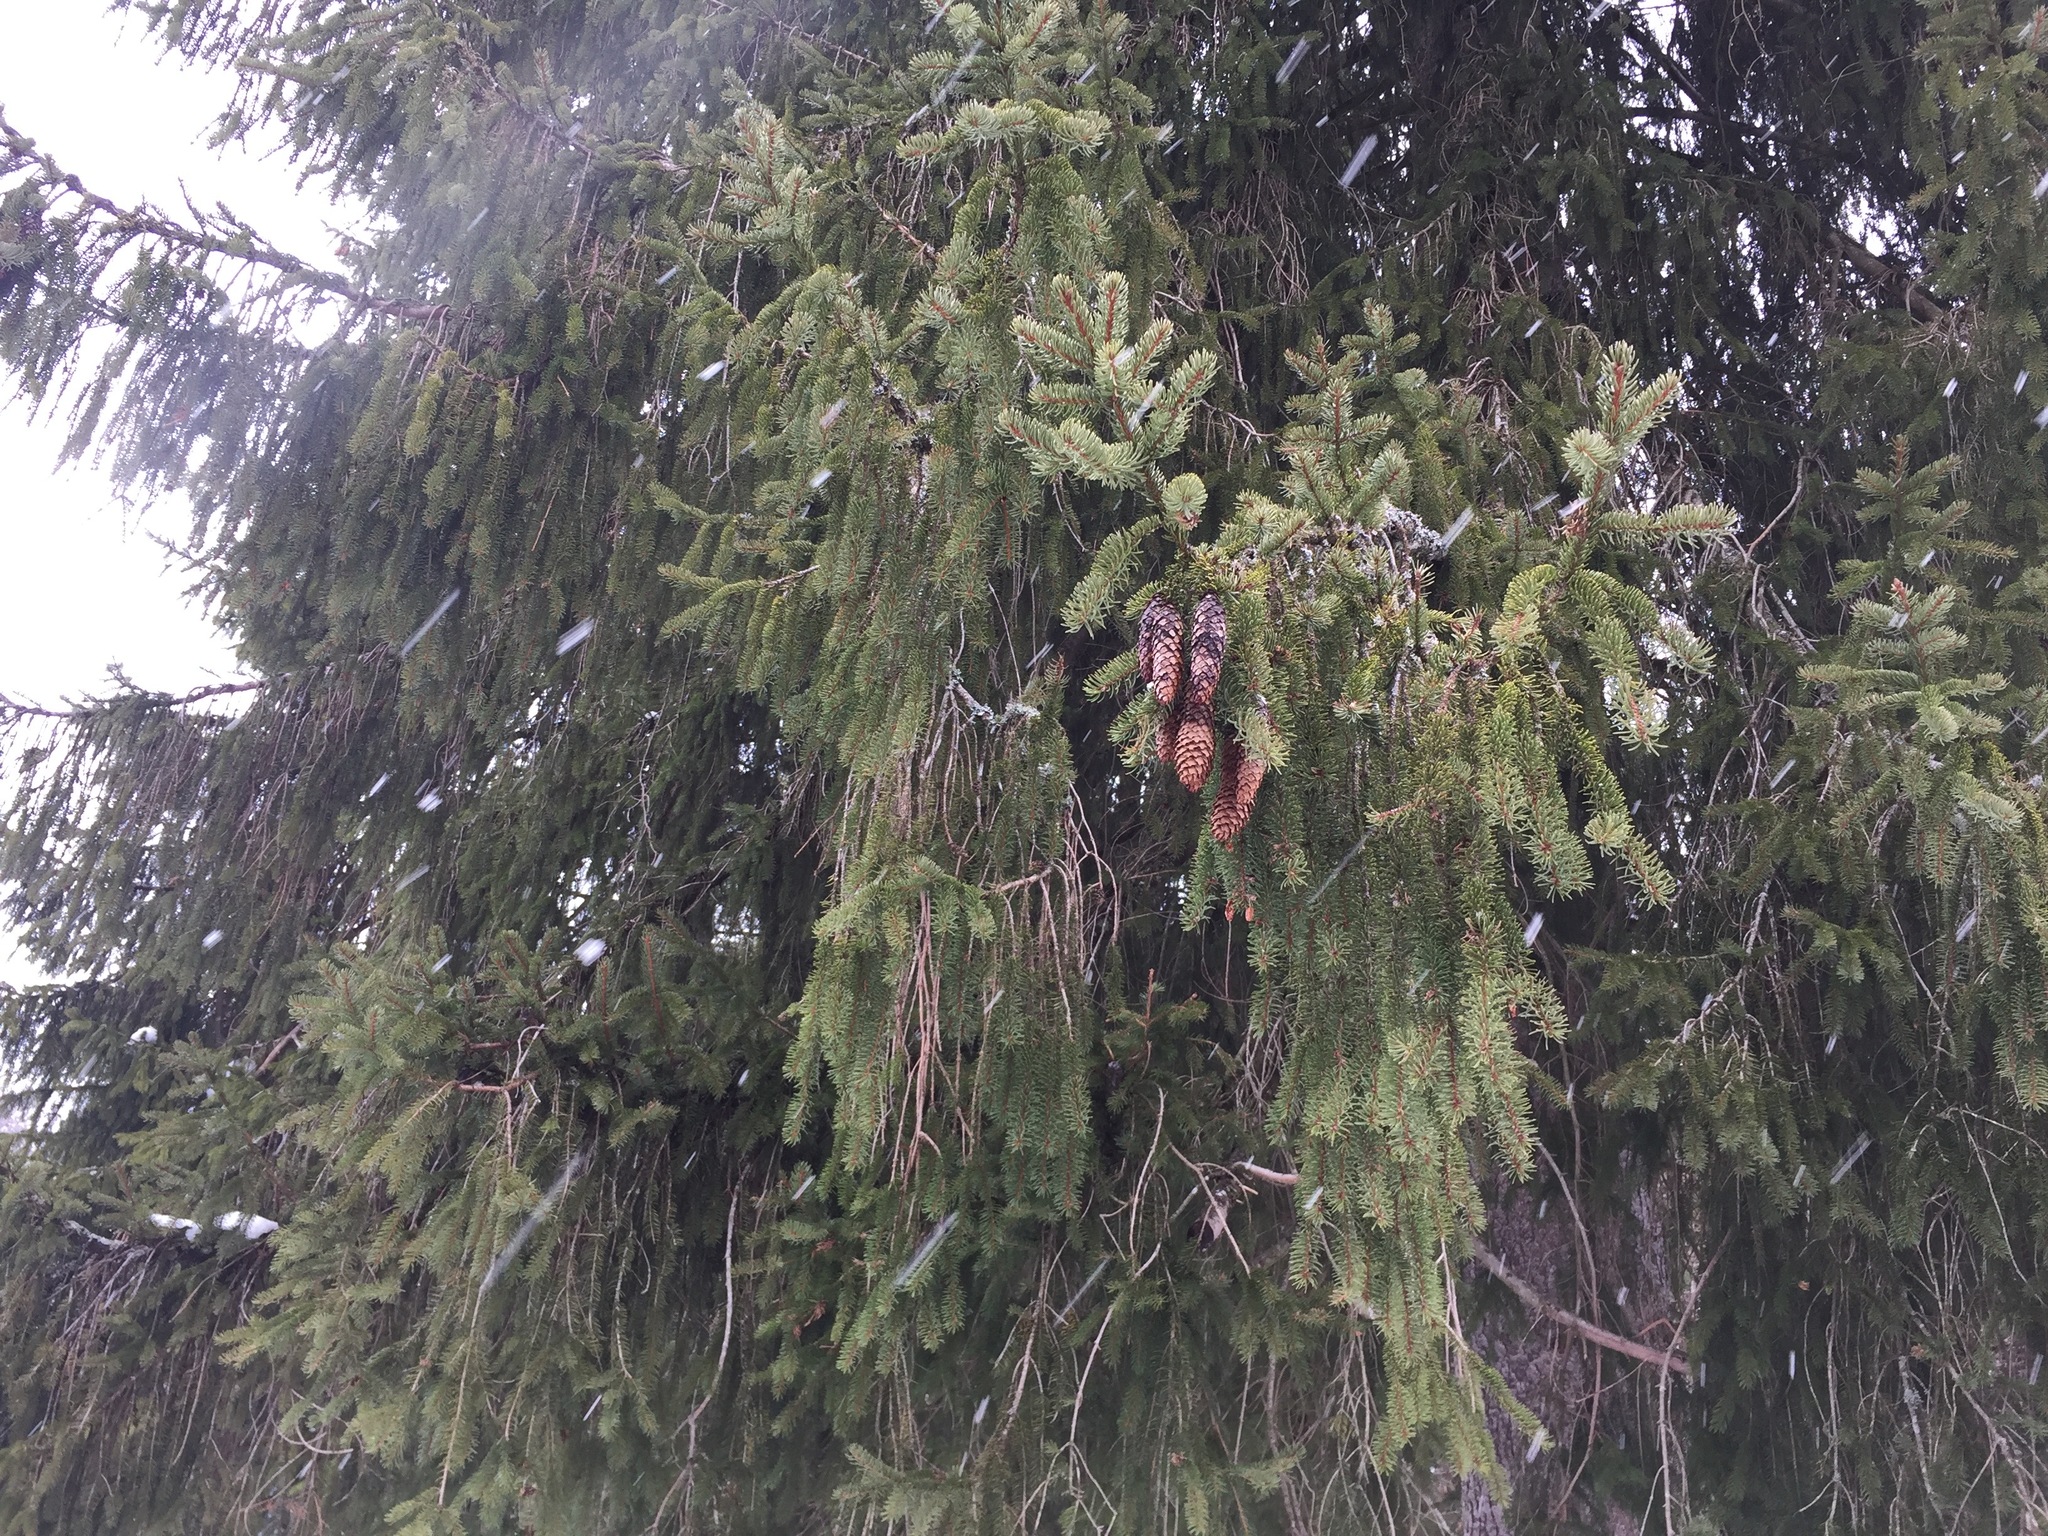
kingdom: Plantae
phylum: Tracheophyta
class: Pinopsida
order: Pinales
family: Pinaceae
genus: Picea
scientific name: Picea abies
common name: Norway spruce
